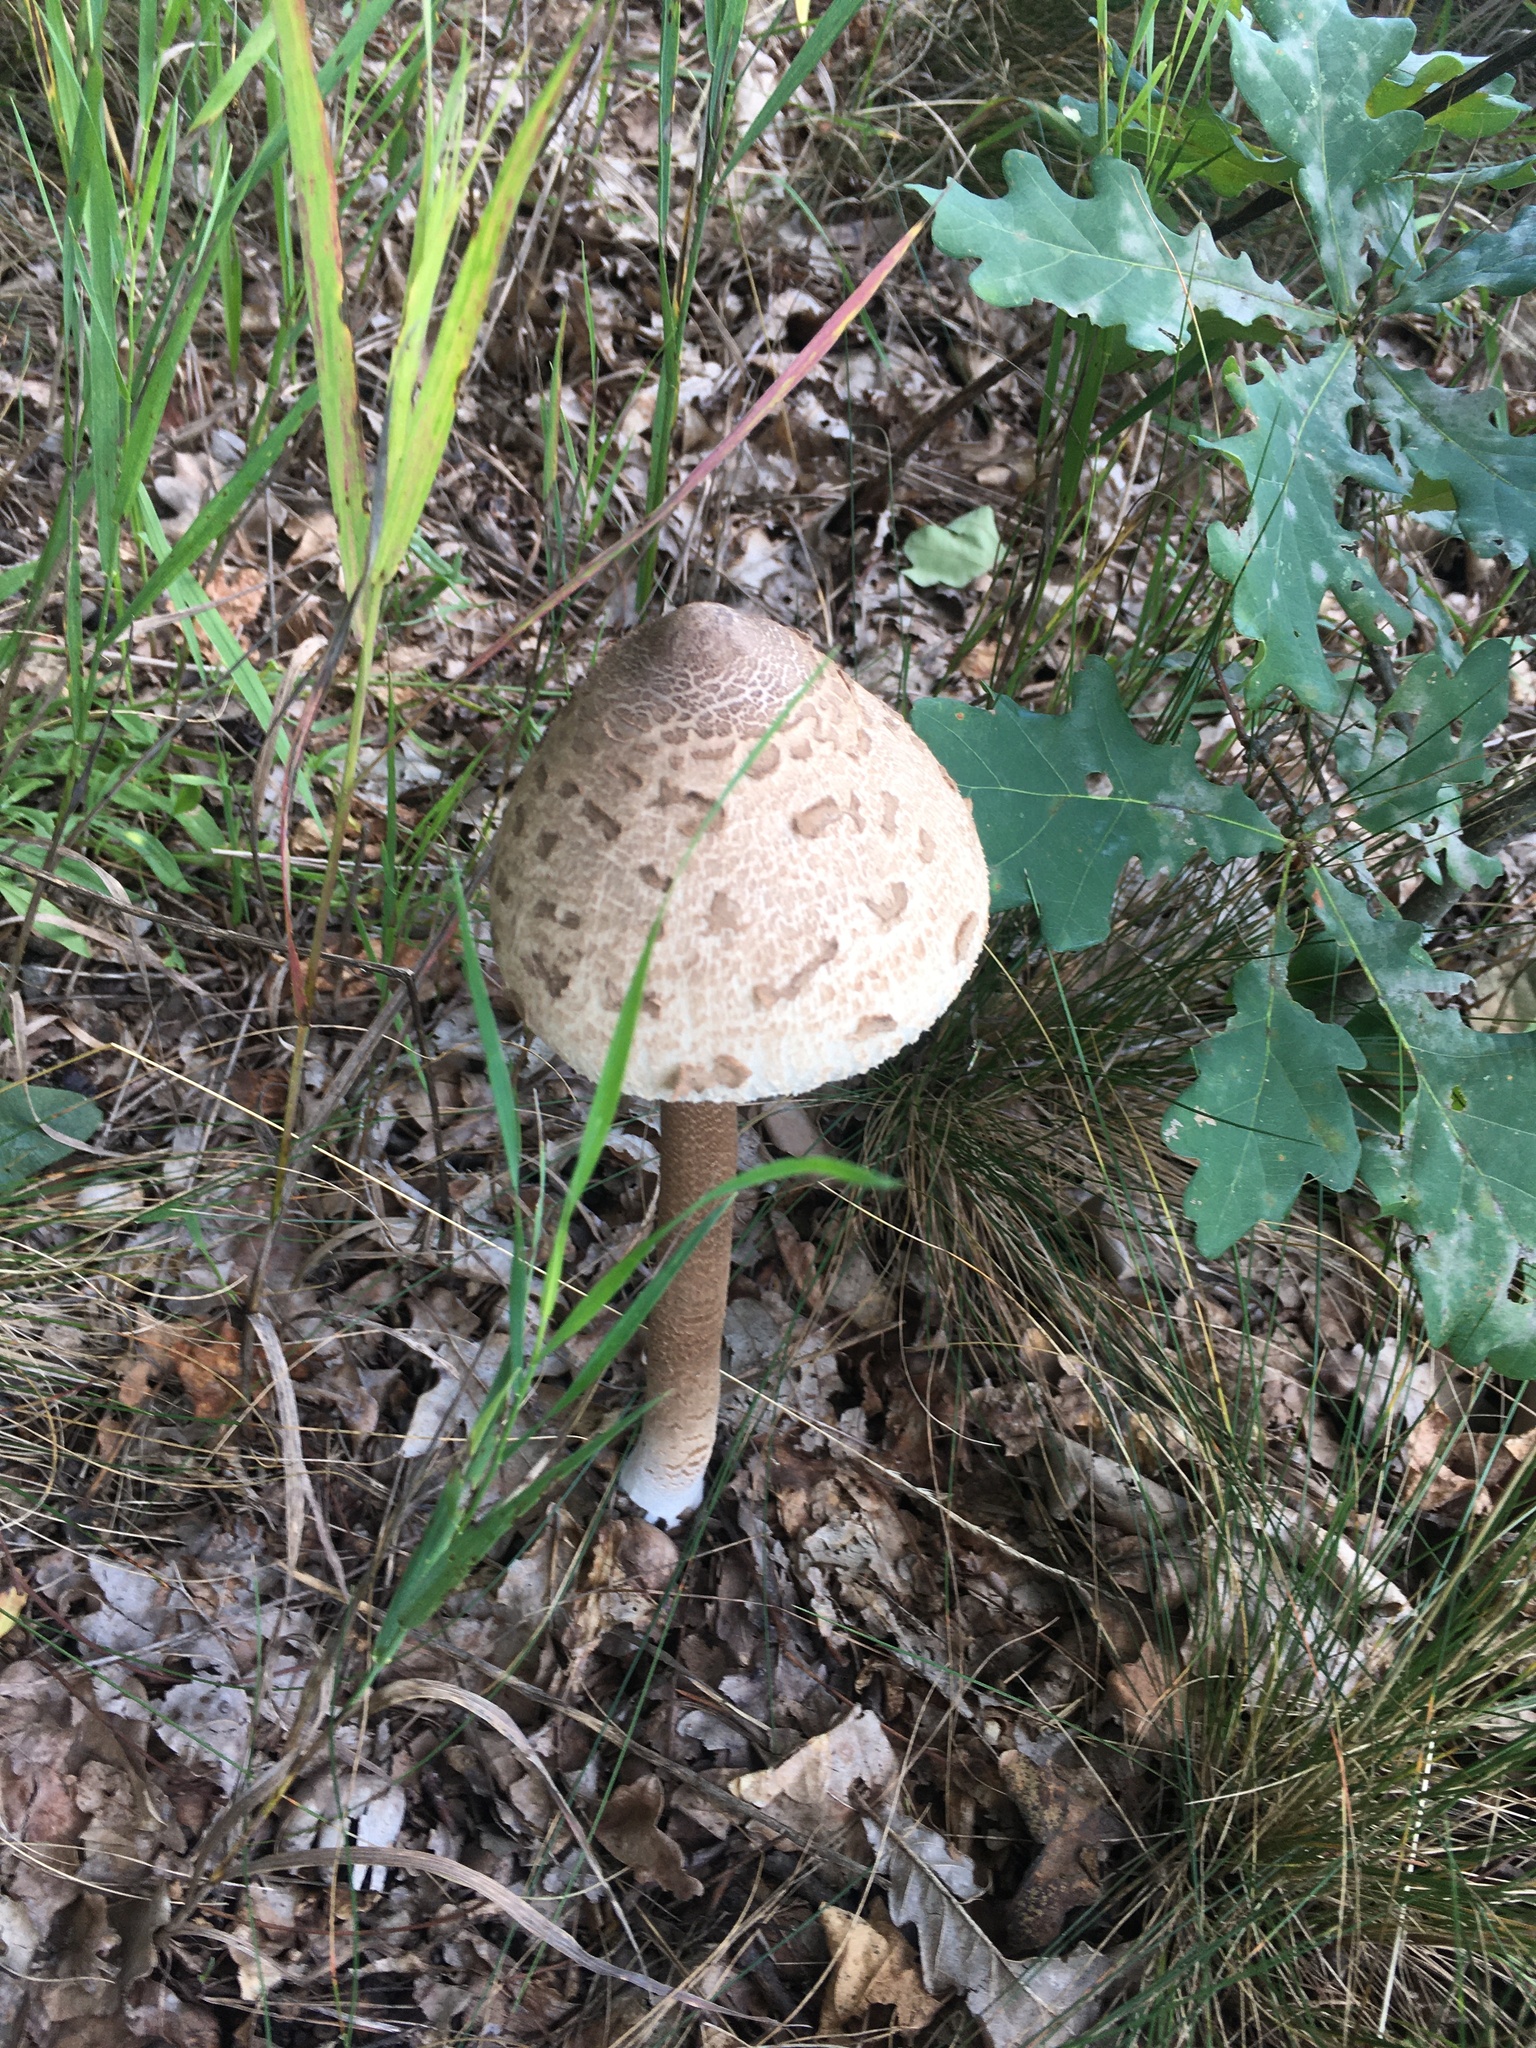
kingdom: Fungi
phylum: Basidiomycota
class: Agaricomycetes
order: Agaricales
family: Agaricaceae
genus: Macrolepiota
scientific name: Macrolepiota procera
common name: Parasol
